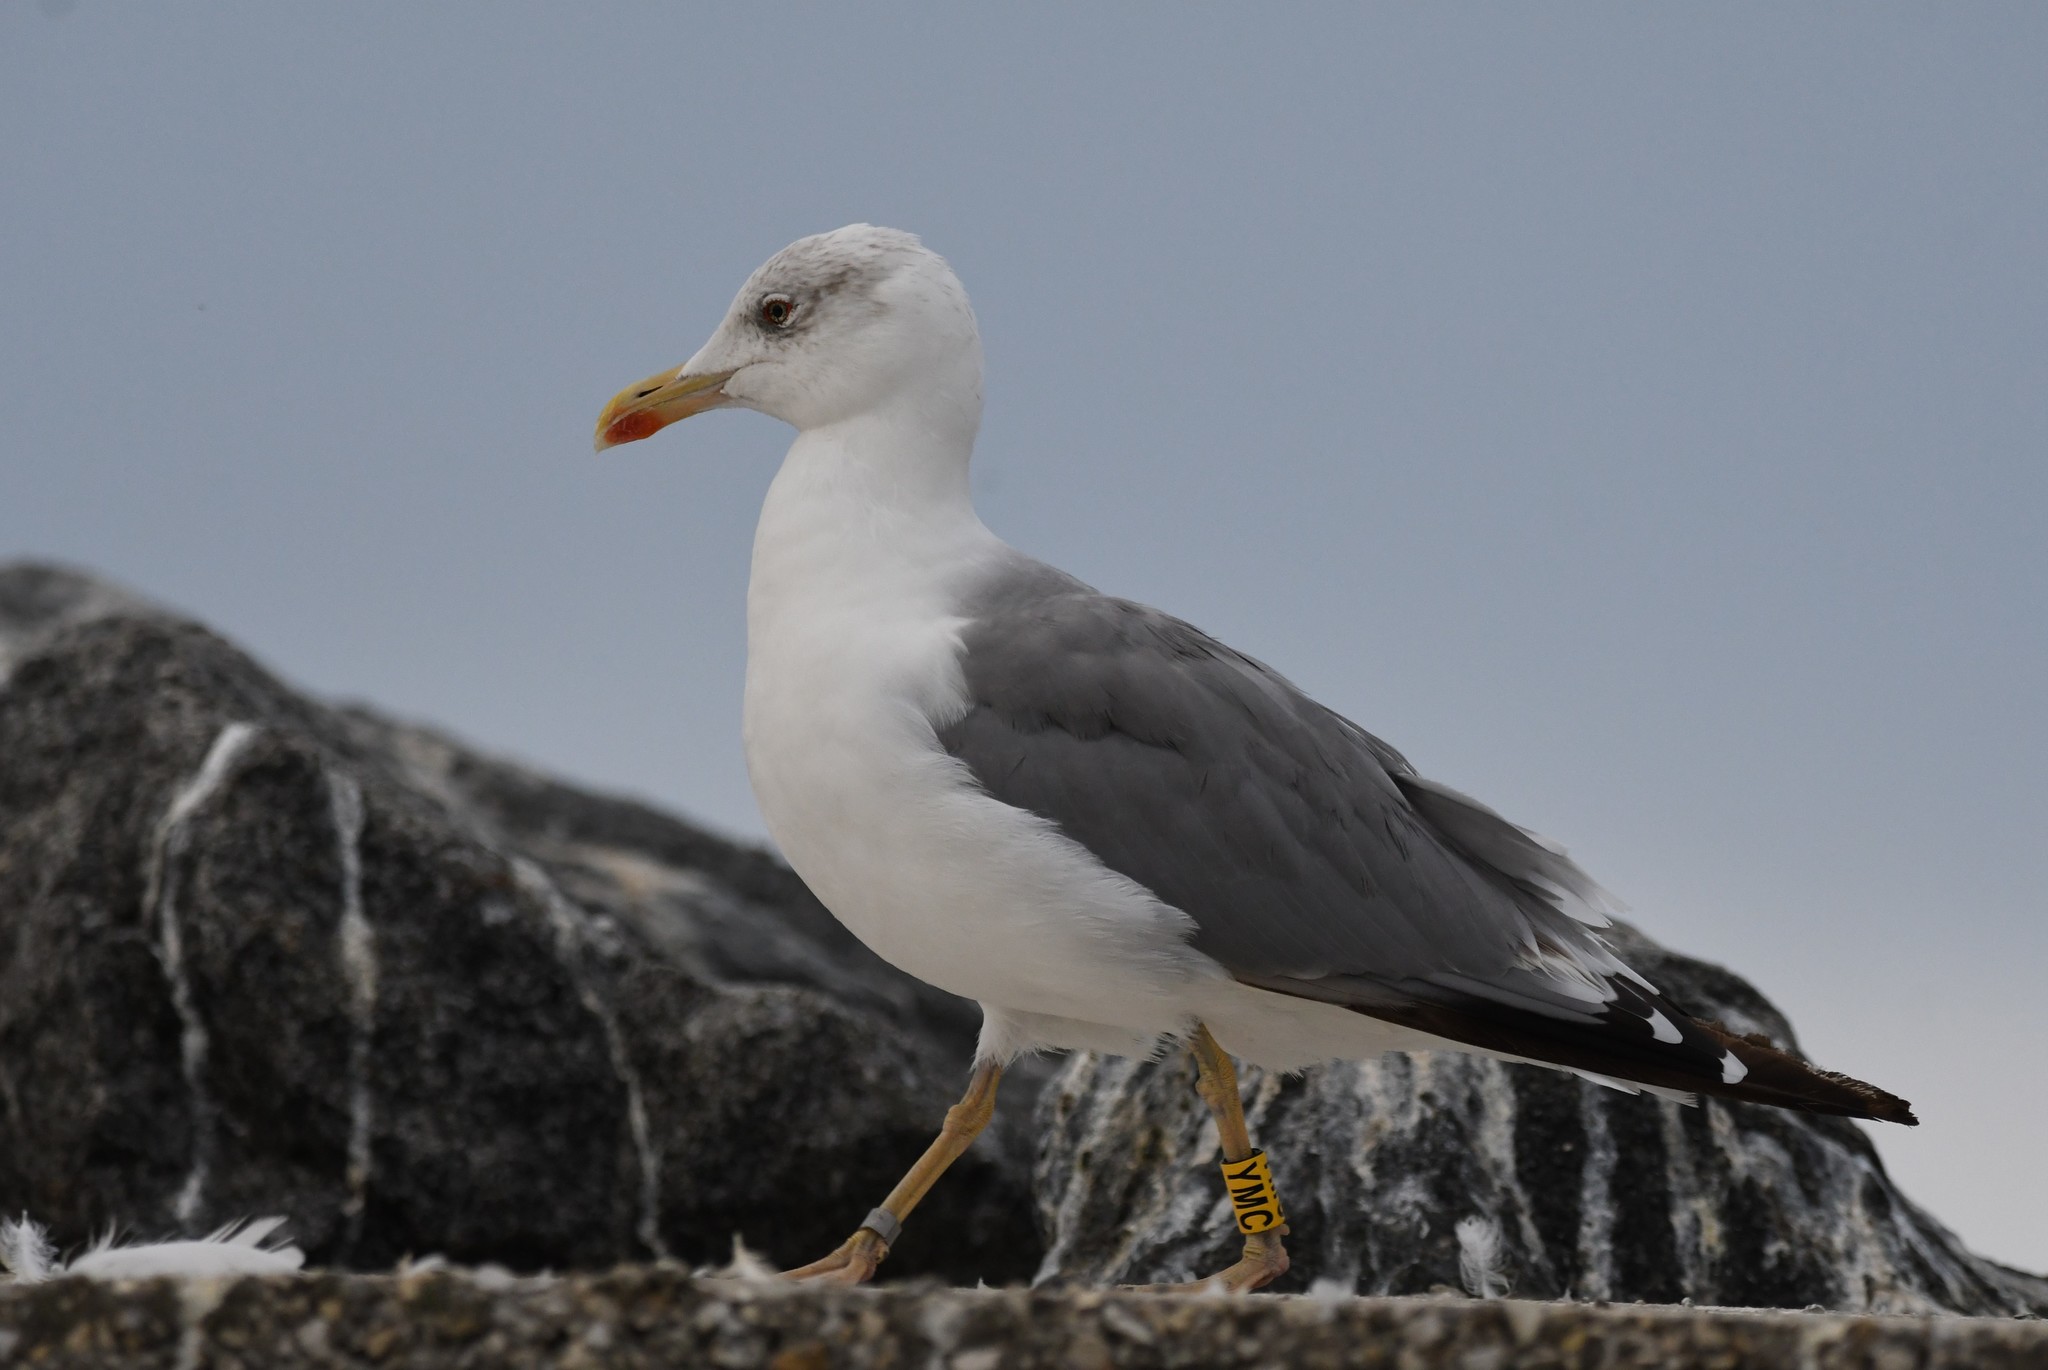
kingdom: Animalia
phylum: Chordata
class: Aves
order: Charadriiformes
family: Laridae
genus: Larus
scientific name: Larus fuscus
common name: Lesser black-backed gull
